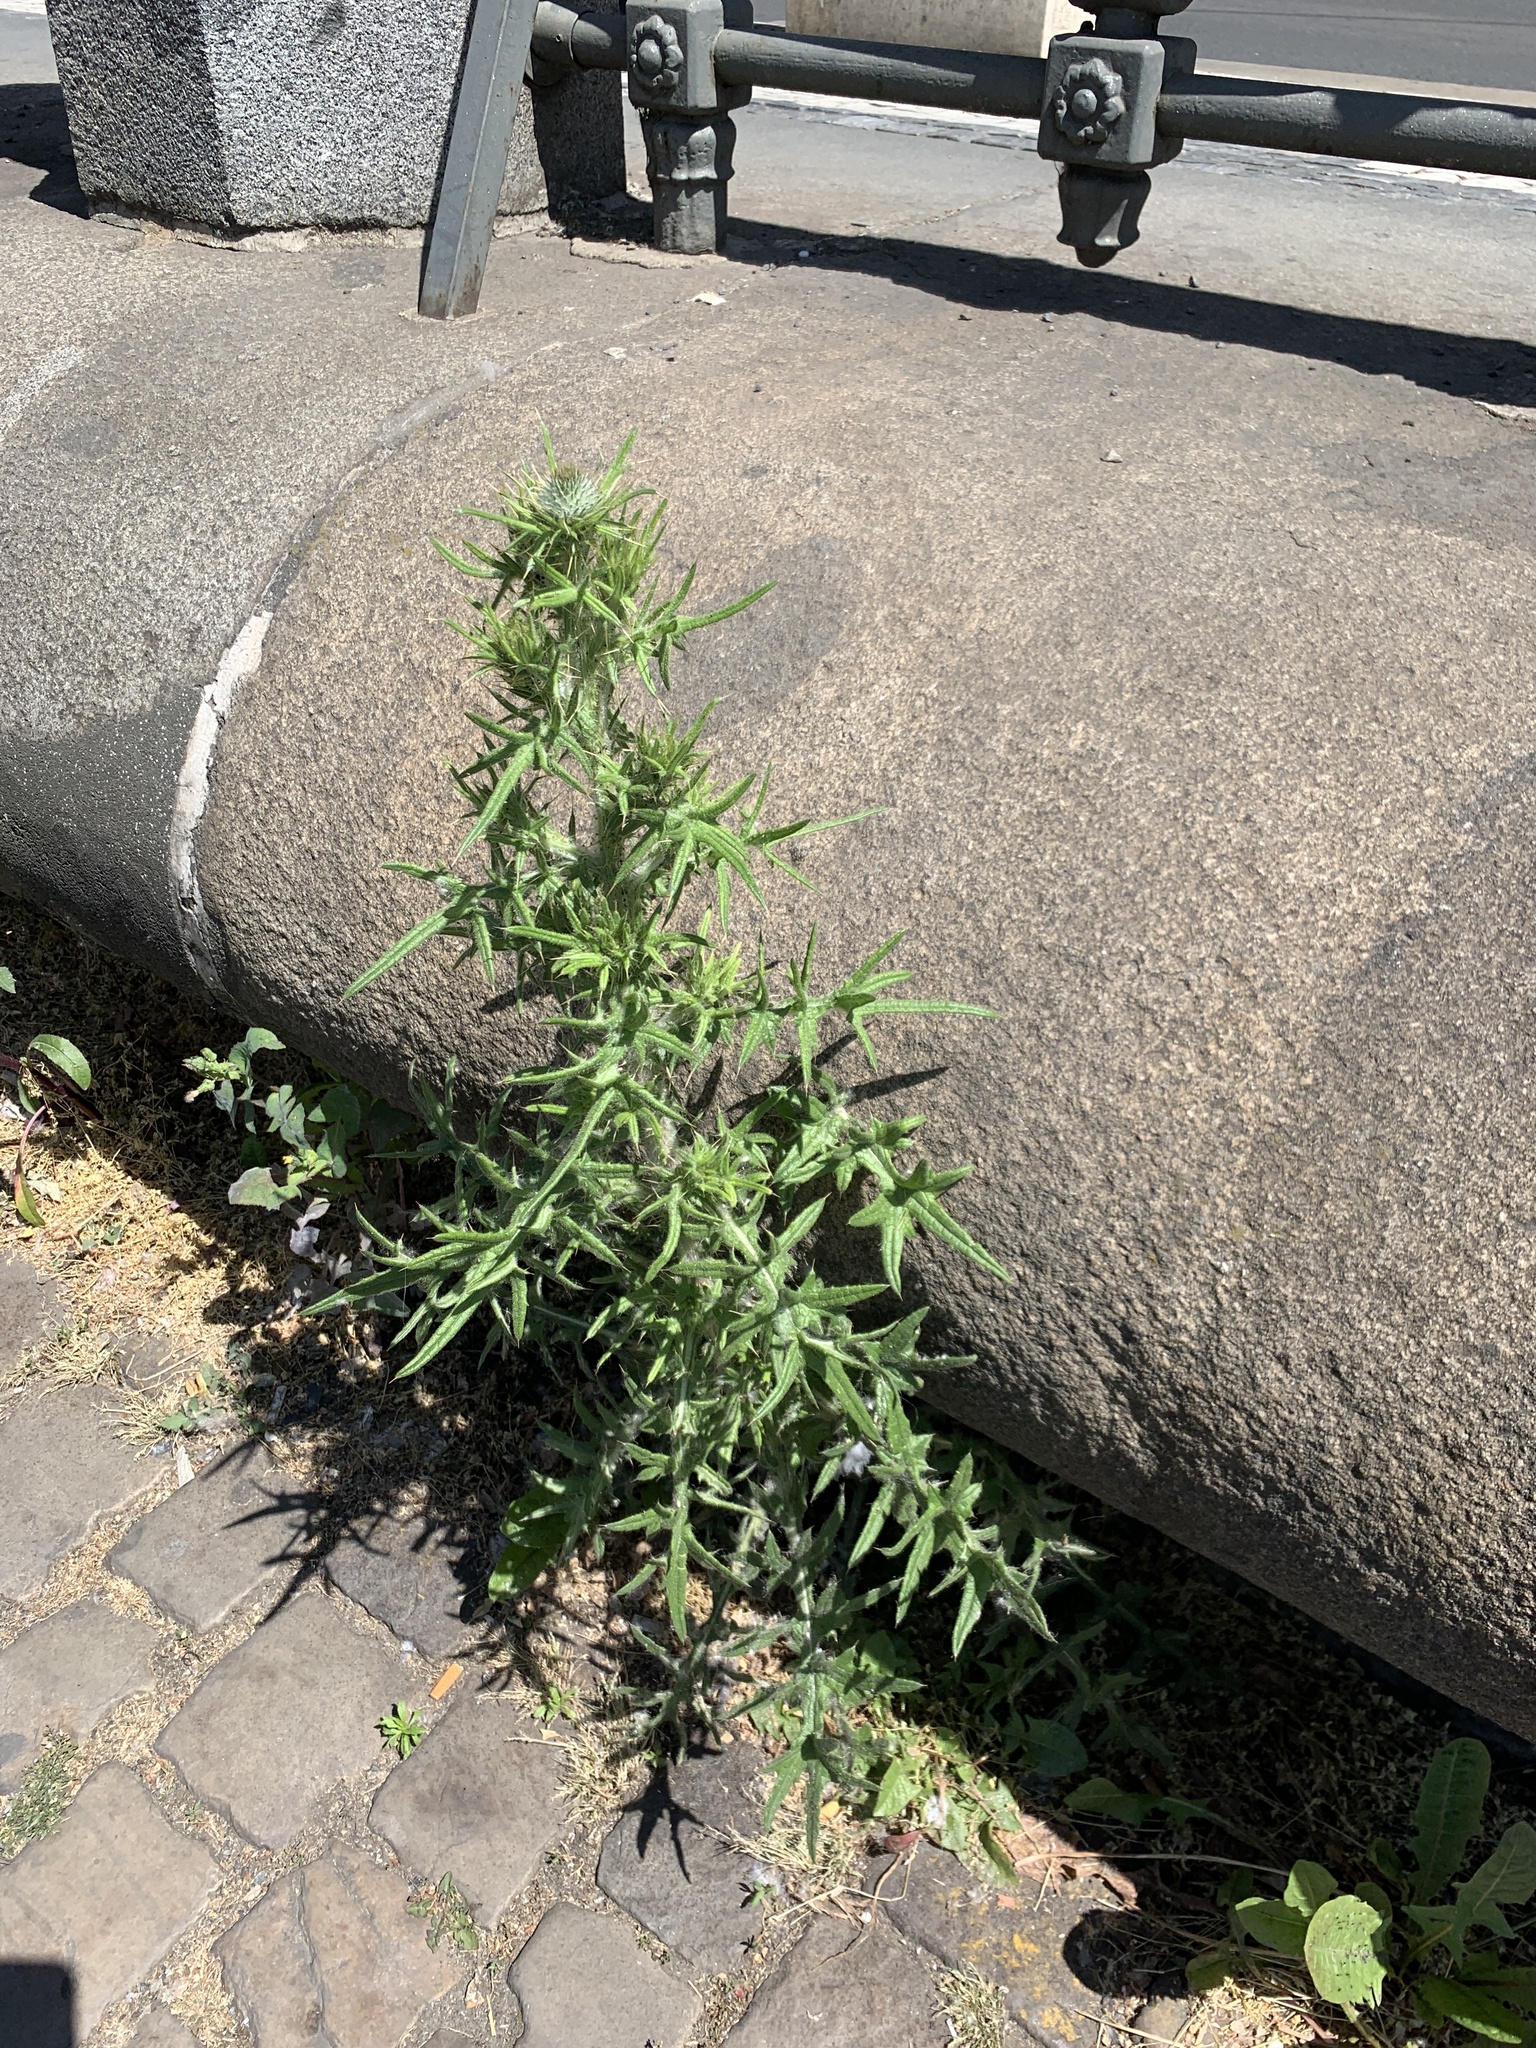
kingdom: Plantae
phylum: Tracheophyta
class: Magnoliopsida
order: Asterales
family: Asteraceae
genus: Cirsium
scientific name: Cirsium vulgare
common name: Bull thistle
